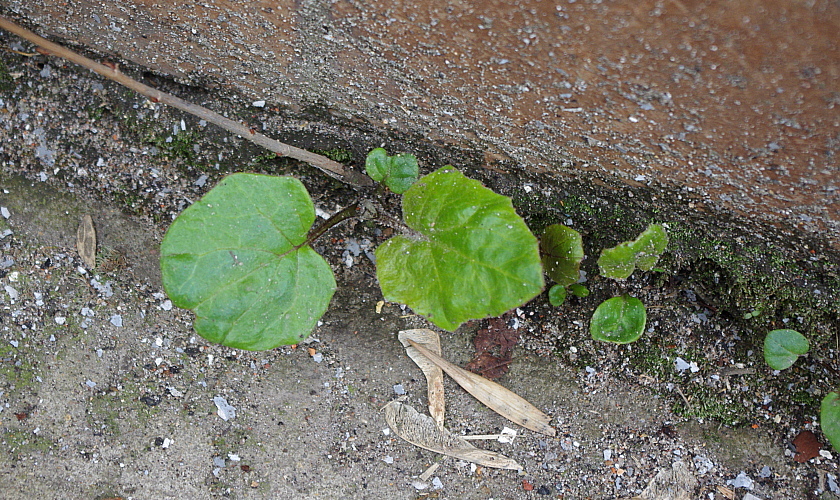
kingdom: Plantae
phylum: Tracheophyta
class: Magnoliopsida
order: Asterales
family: Asteraceae
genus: Tussilago
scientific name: Tussilago farfara
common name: Coltsfoot
